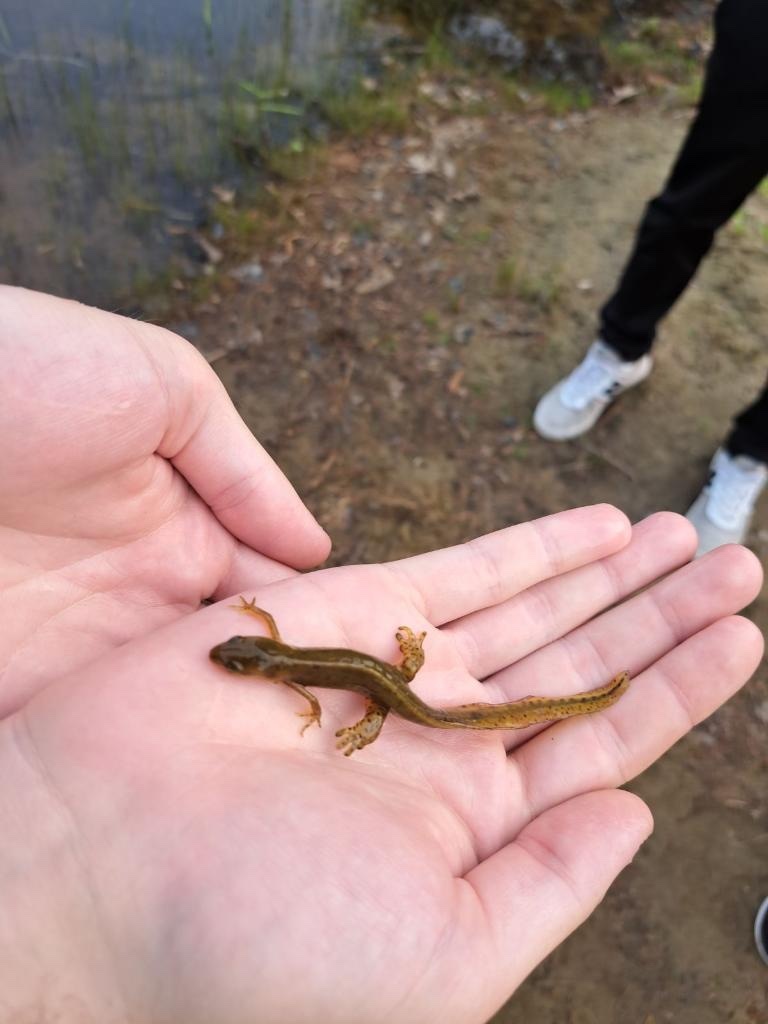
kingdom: Animalia
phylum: Chordata
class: Amphibia
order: Caudata
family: Salamandridae
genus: Notophthalmus
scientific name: Notophthalmus viridescens
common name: Eastern newt
